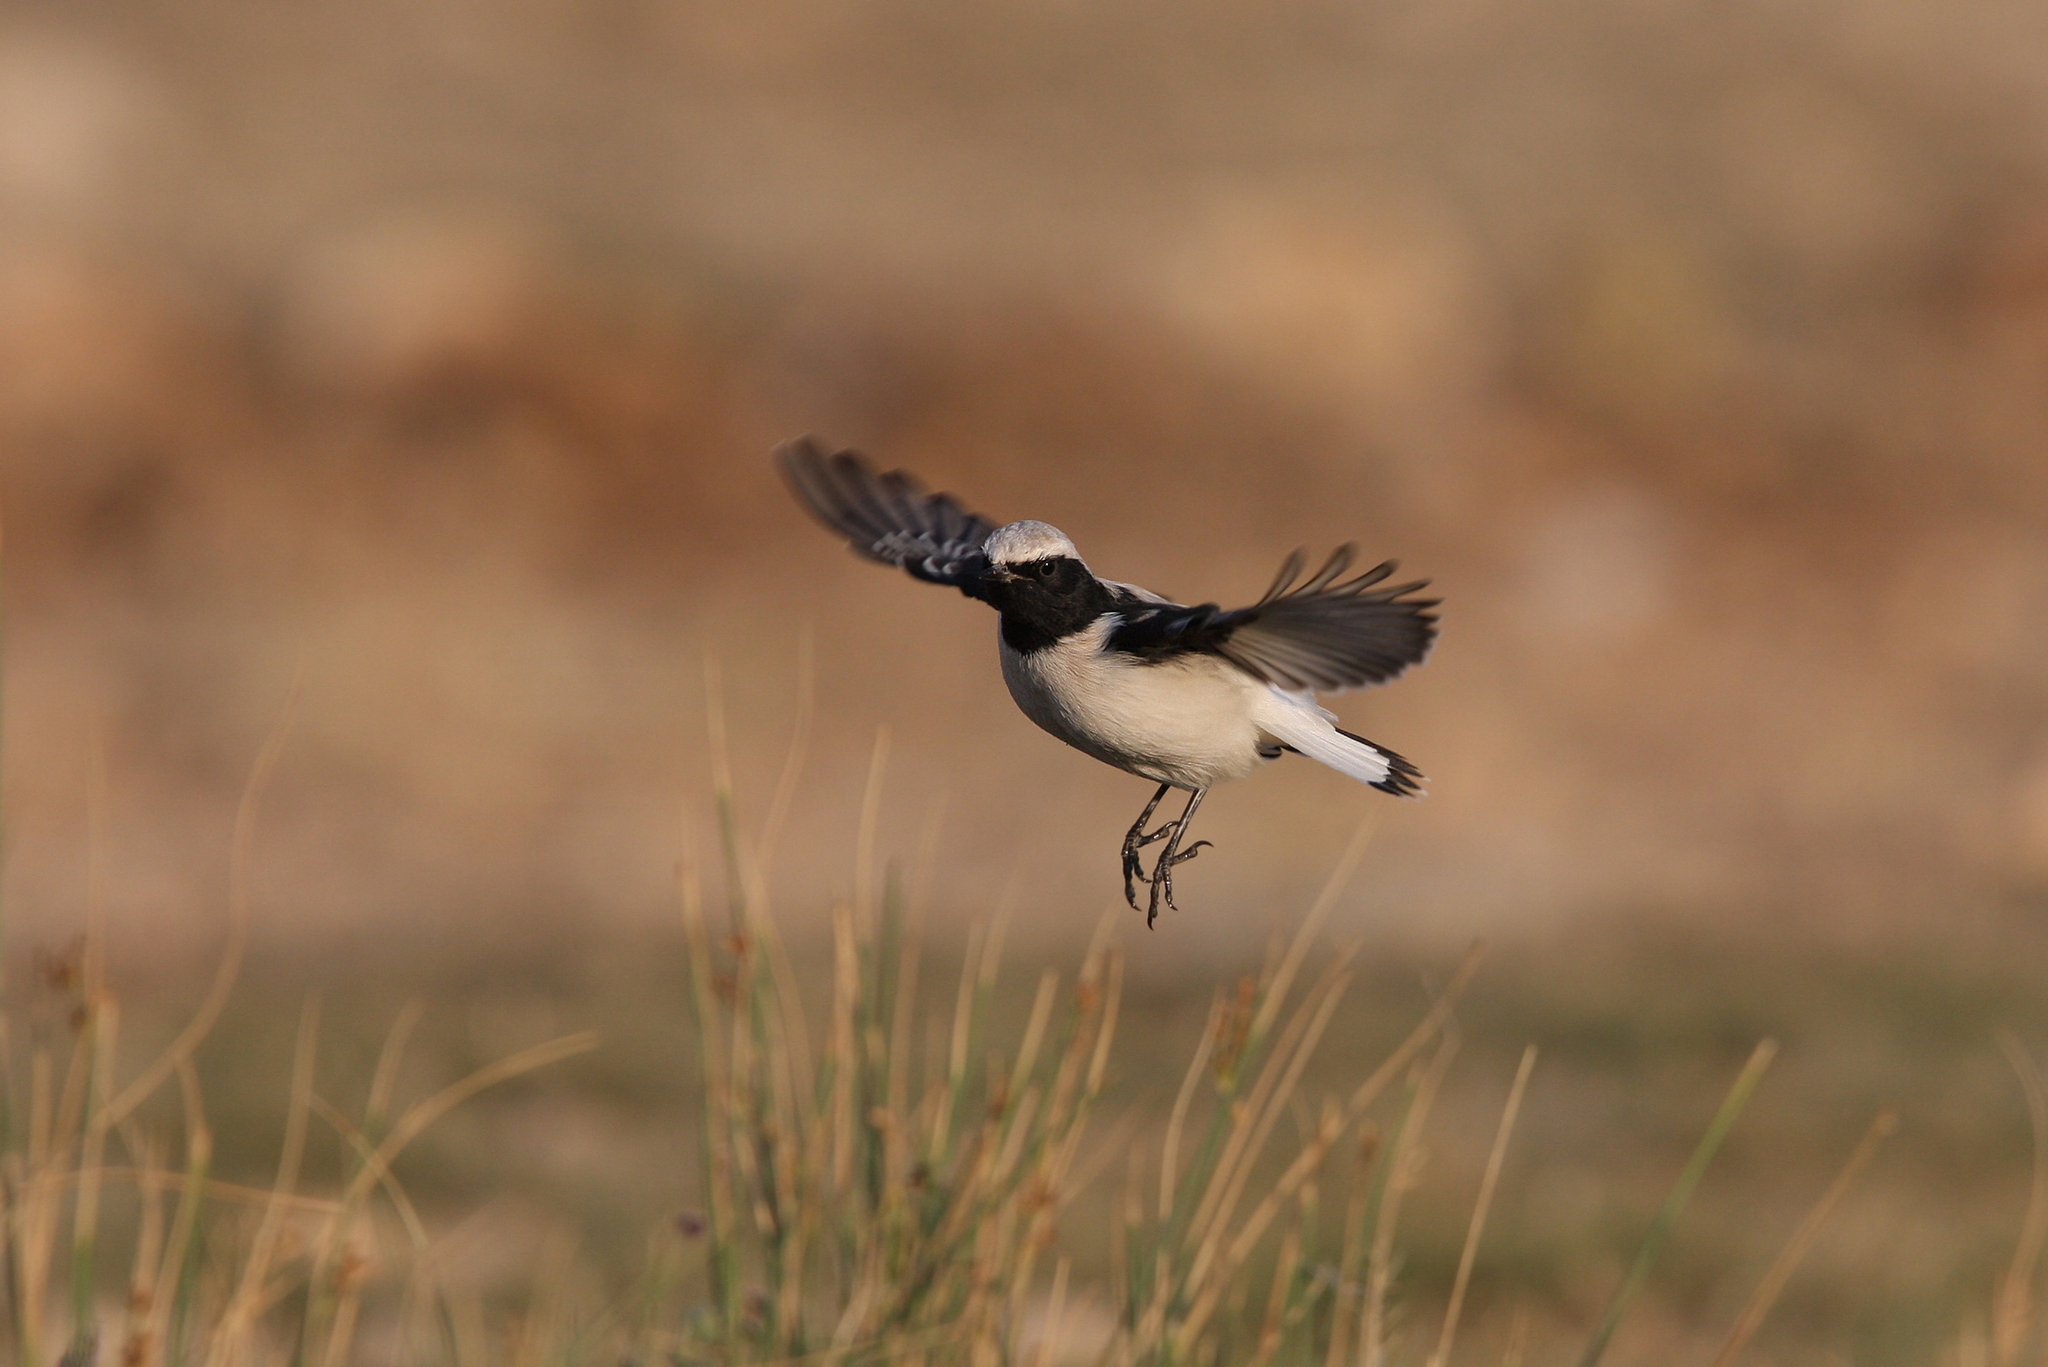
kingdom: Animalia
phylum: Chordata
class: Aves
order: Passeriformes
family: Muscicapidae
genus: Oenanthe
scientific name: Oenanthe finschii
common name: Finsch's wheatear
